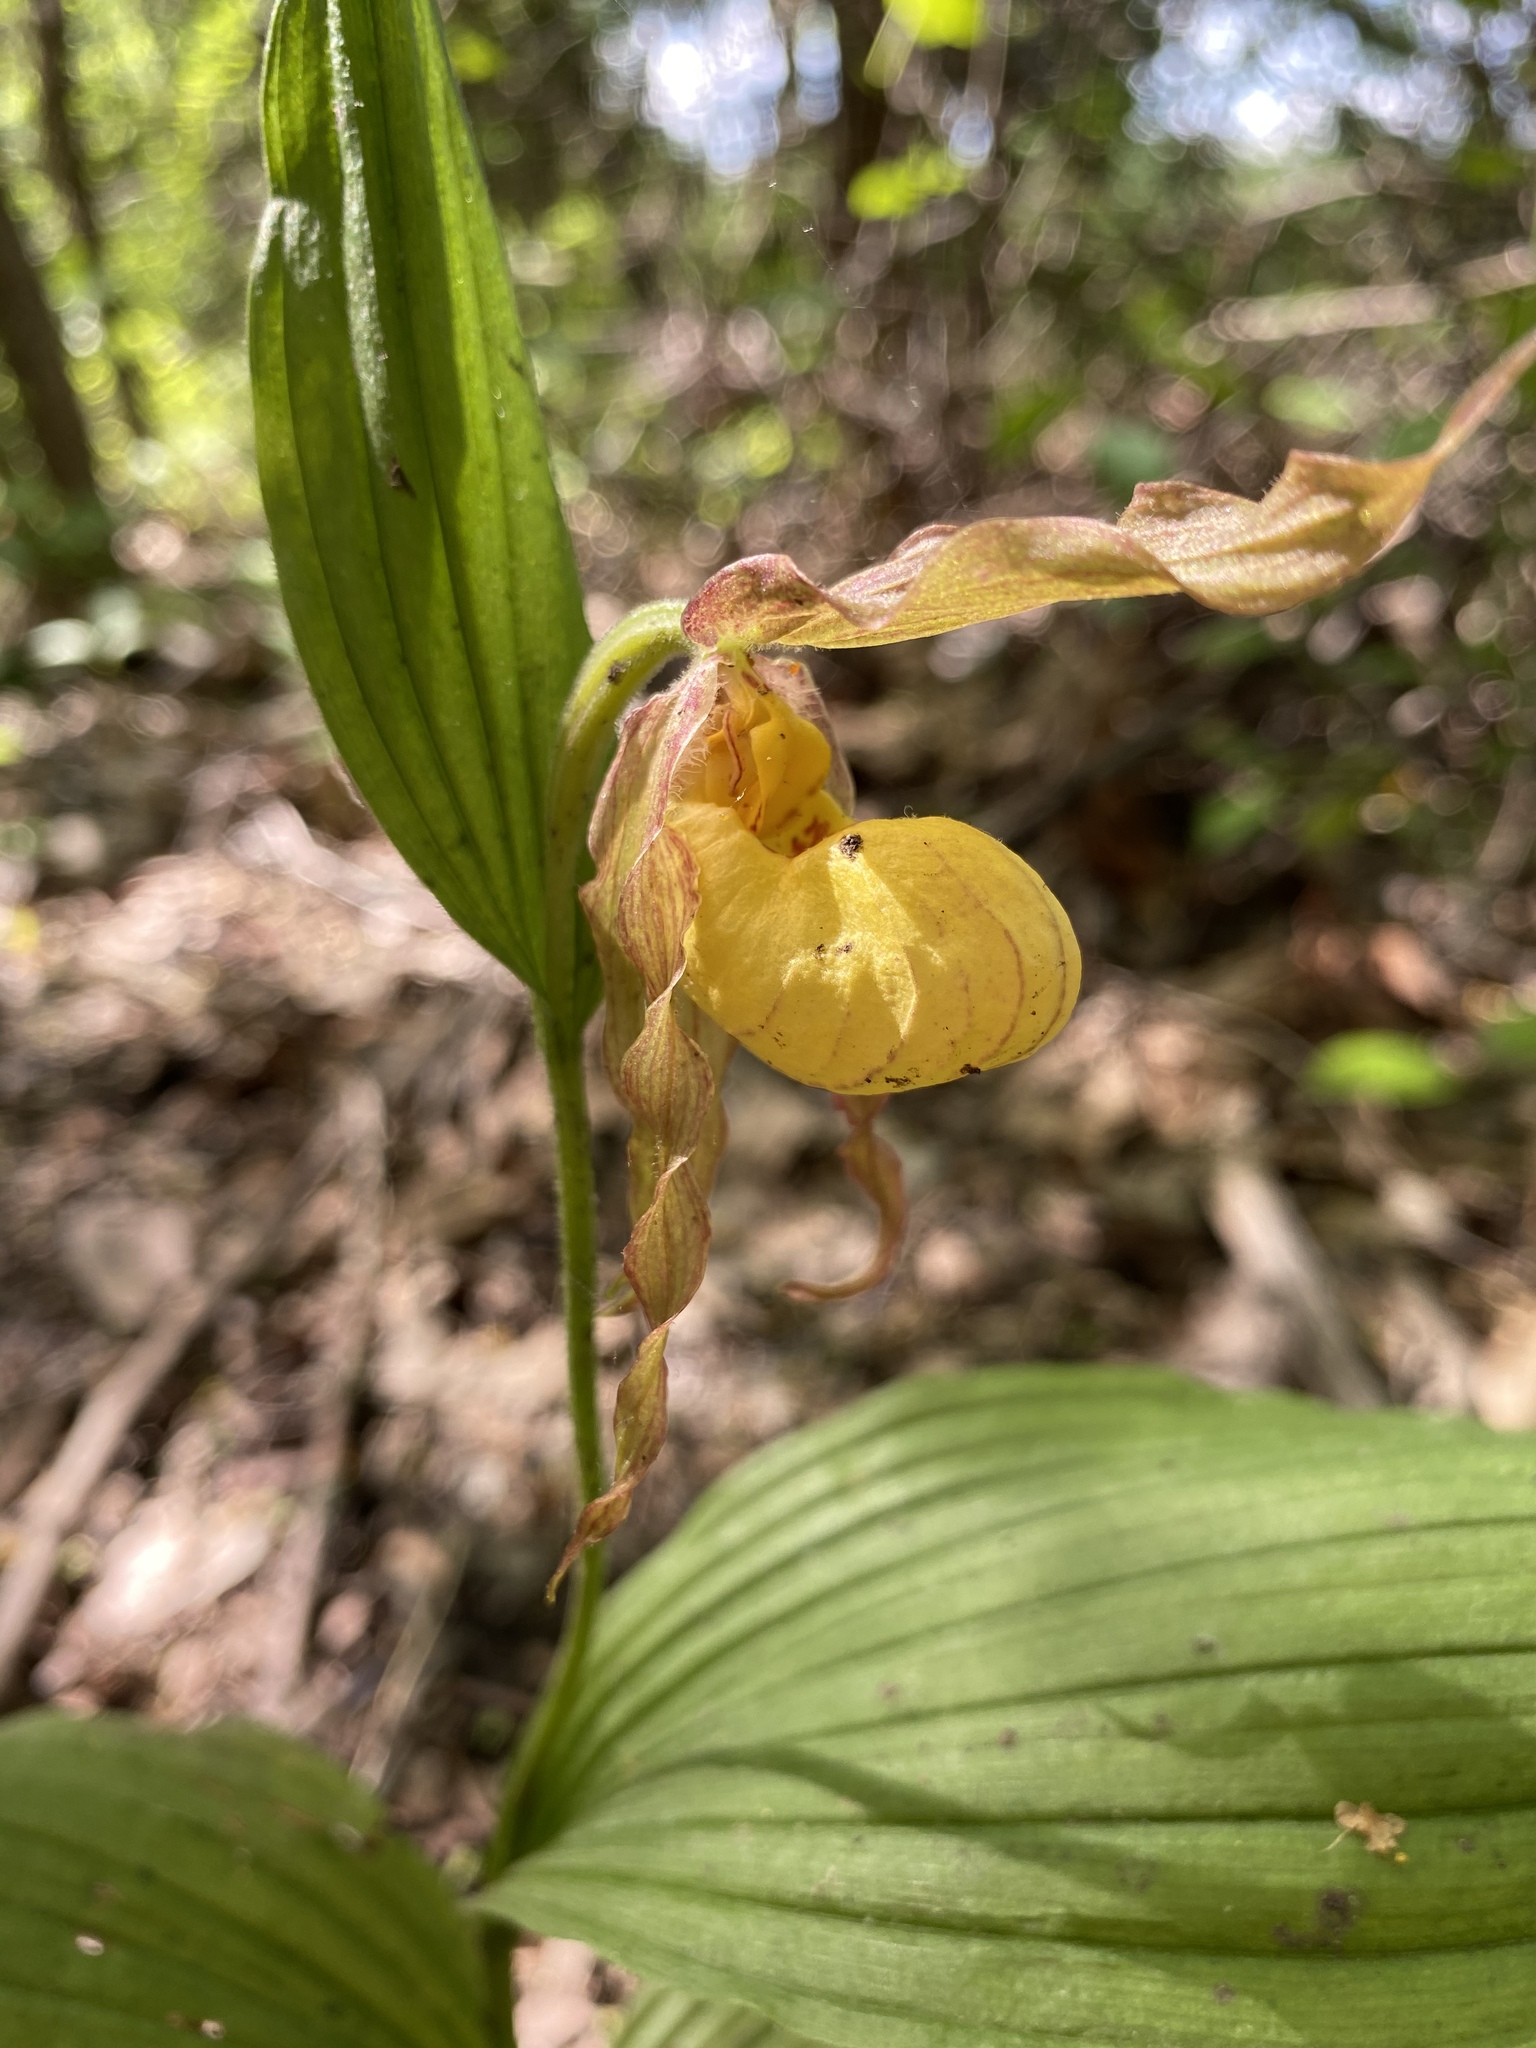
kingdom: Plantae
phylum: Tracheophyta
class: Liliopsida
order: Asparagales
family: Orchidaceae
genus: Cypripedium
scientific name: Cypripedium parviflorum
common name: American yellow lady's-slipper
